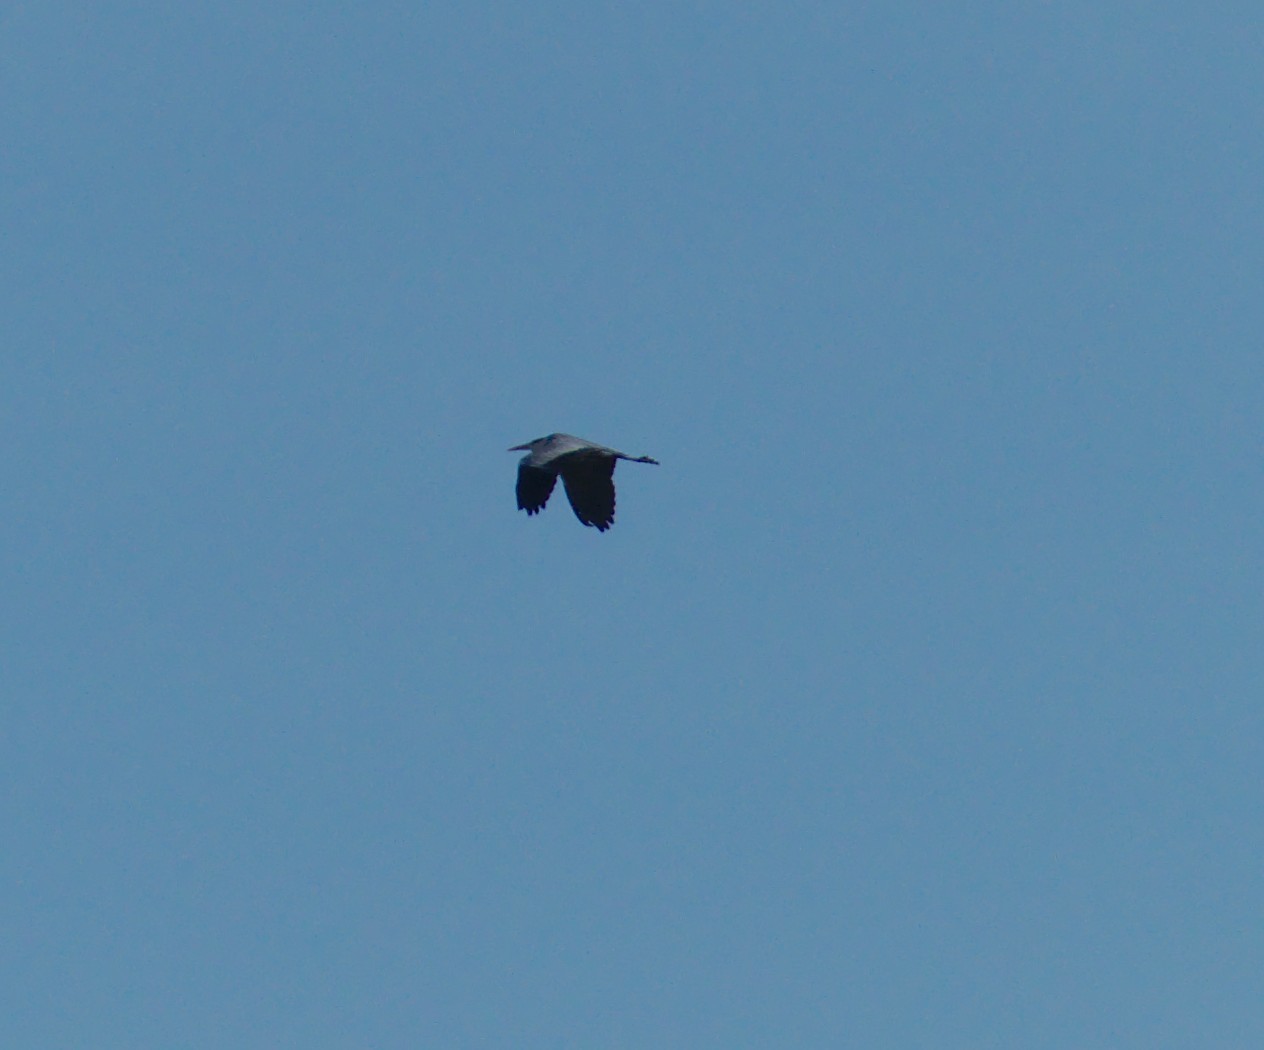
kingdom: Animalia
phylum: Chordata
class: Aves
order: Pelecaniformes
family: Ardeidae
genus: Ardea
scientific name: Ardea cinerea
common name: Grey heron
